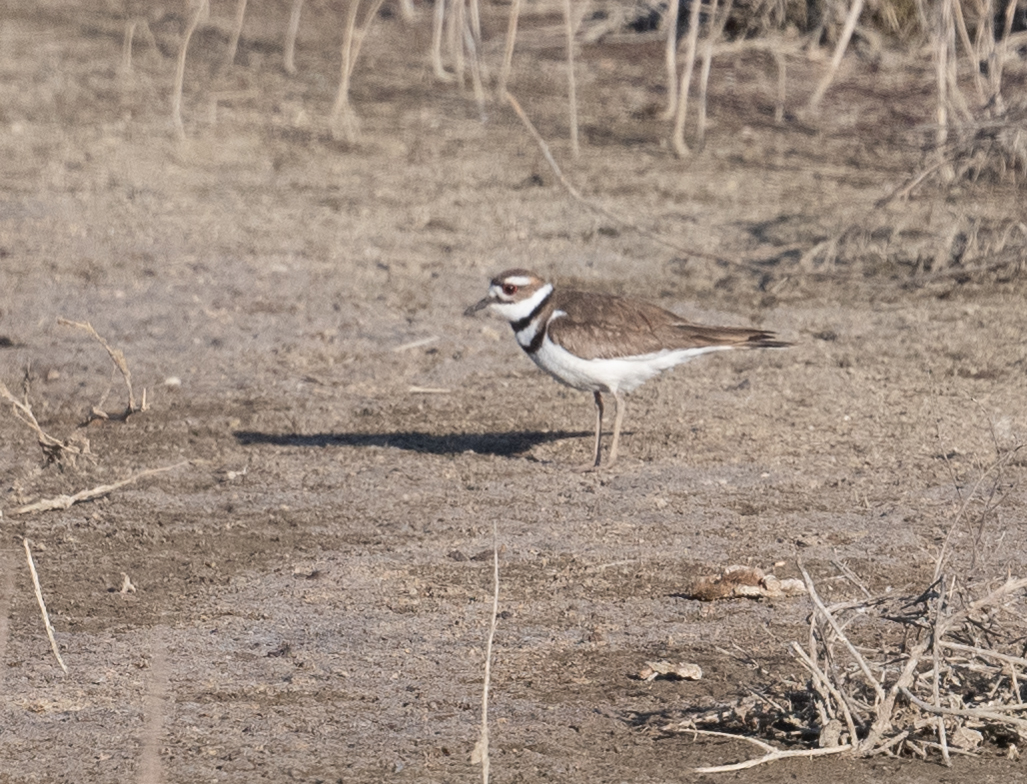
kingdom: Animalia
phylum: Chordata
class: Aves
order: Charadriiformes
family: Charadriidae
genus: Charadrius
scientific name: Charadrius vociferus
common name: Killdeer
